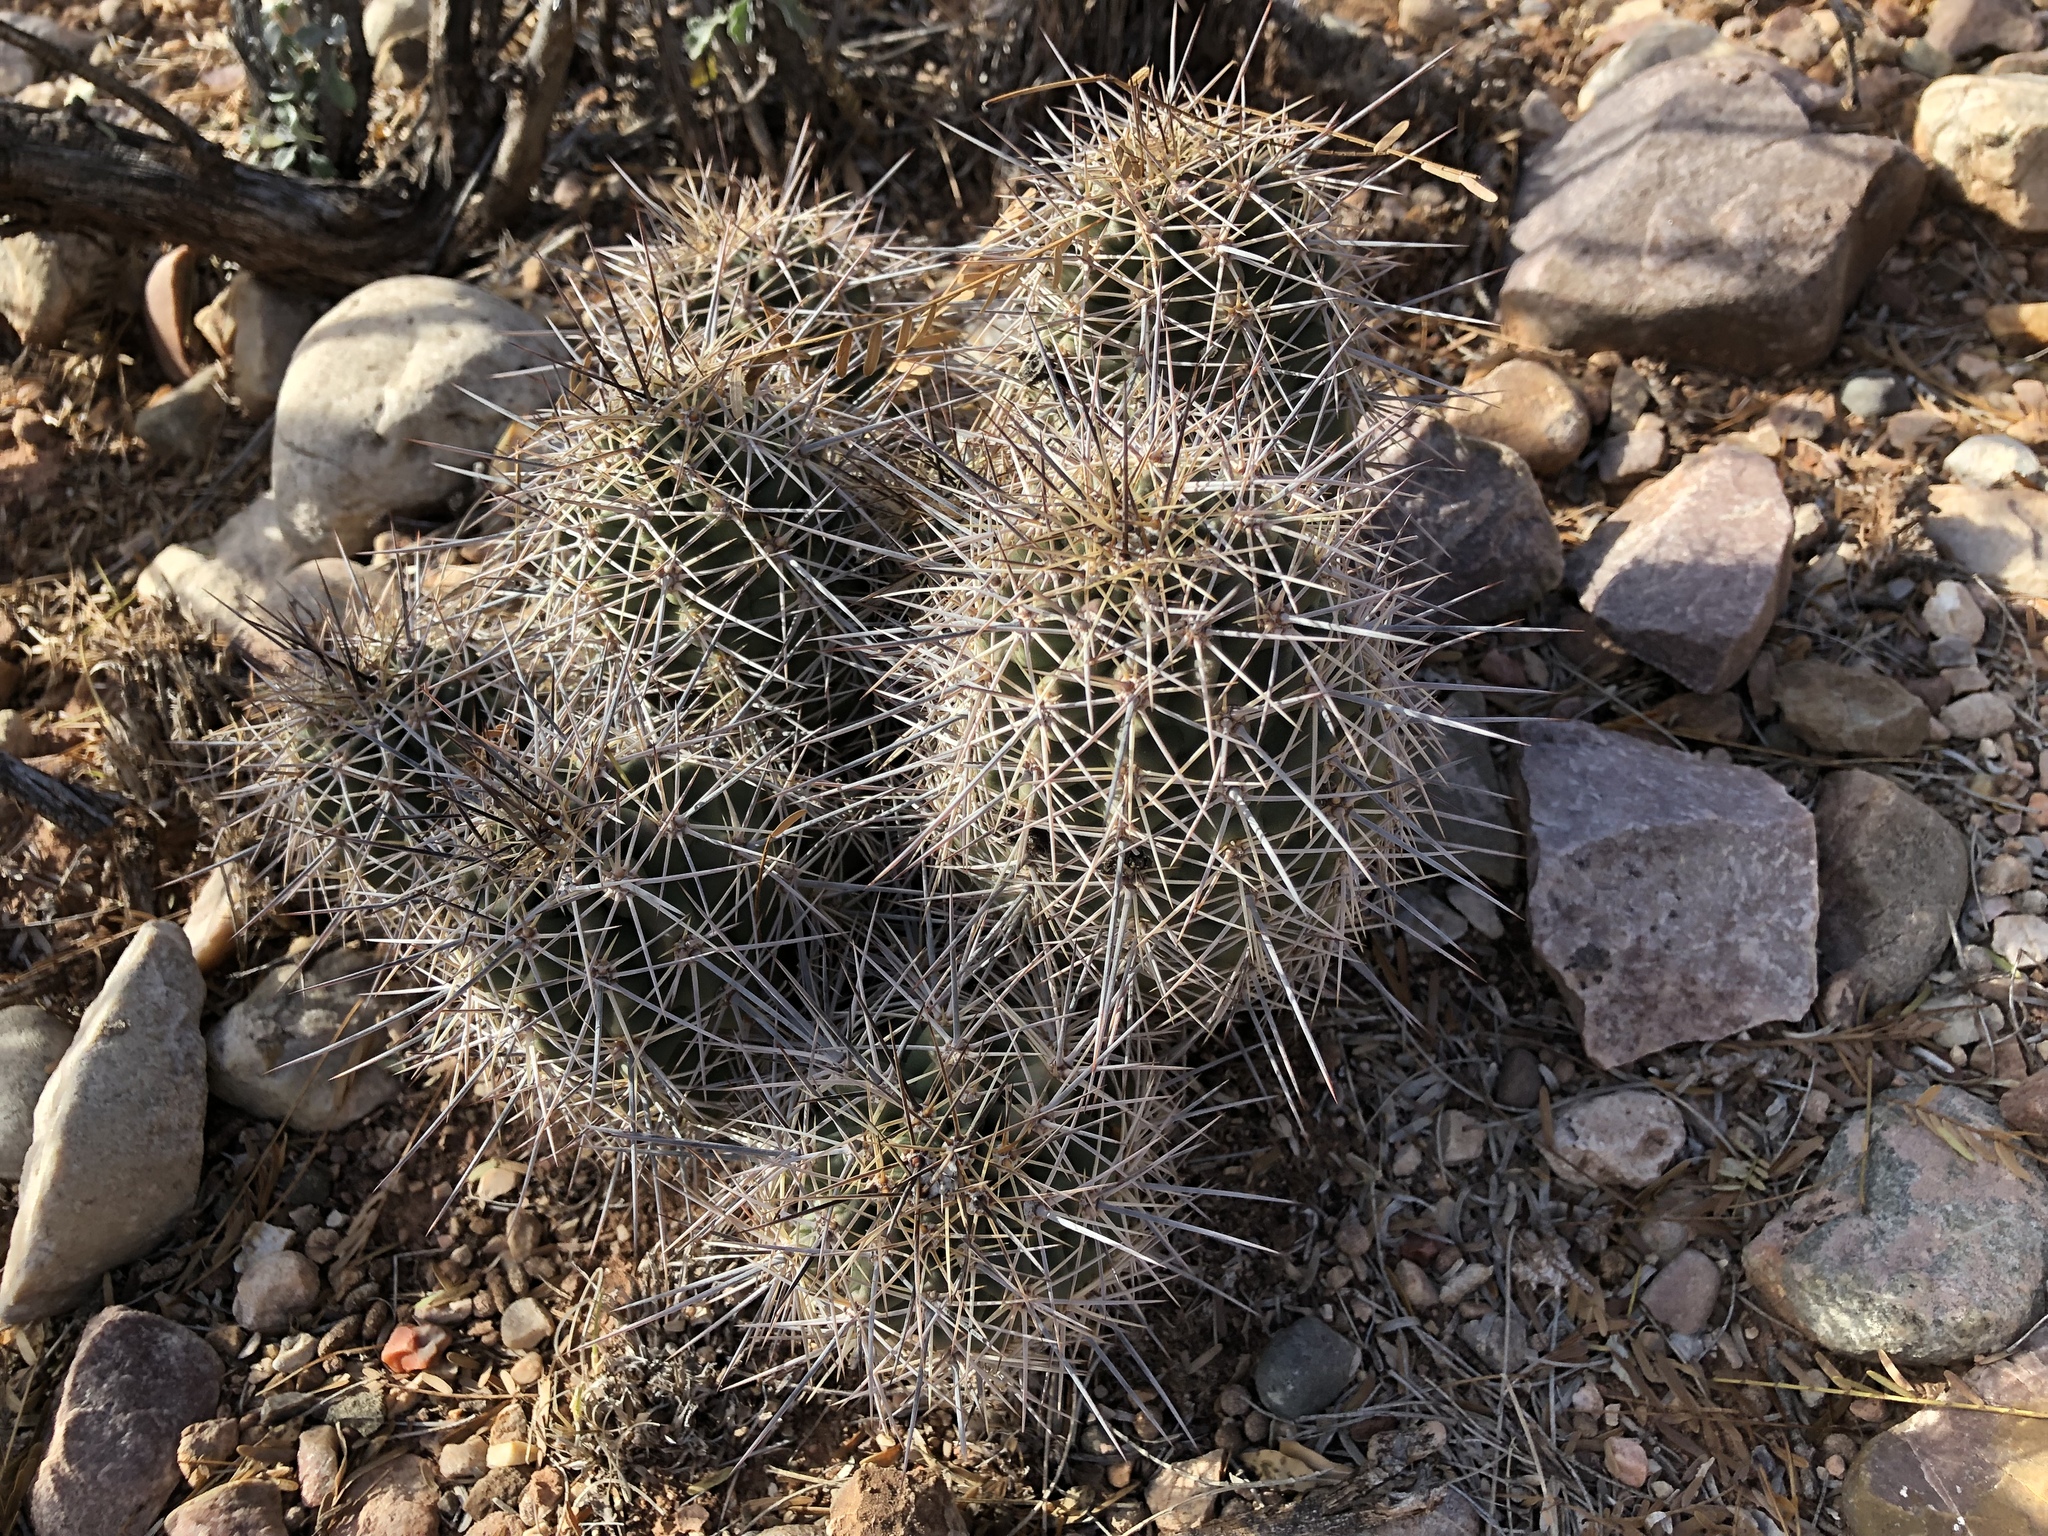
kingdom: Plantae
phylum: Tracheophyta
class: Magnoliopsida
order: Caryophyllales
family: Cactaceae
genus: Echinocereus
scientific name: Echinocereus coccineus
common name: Scarlet hedgehog cactus
